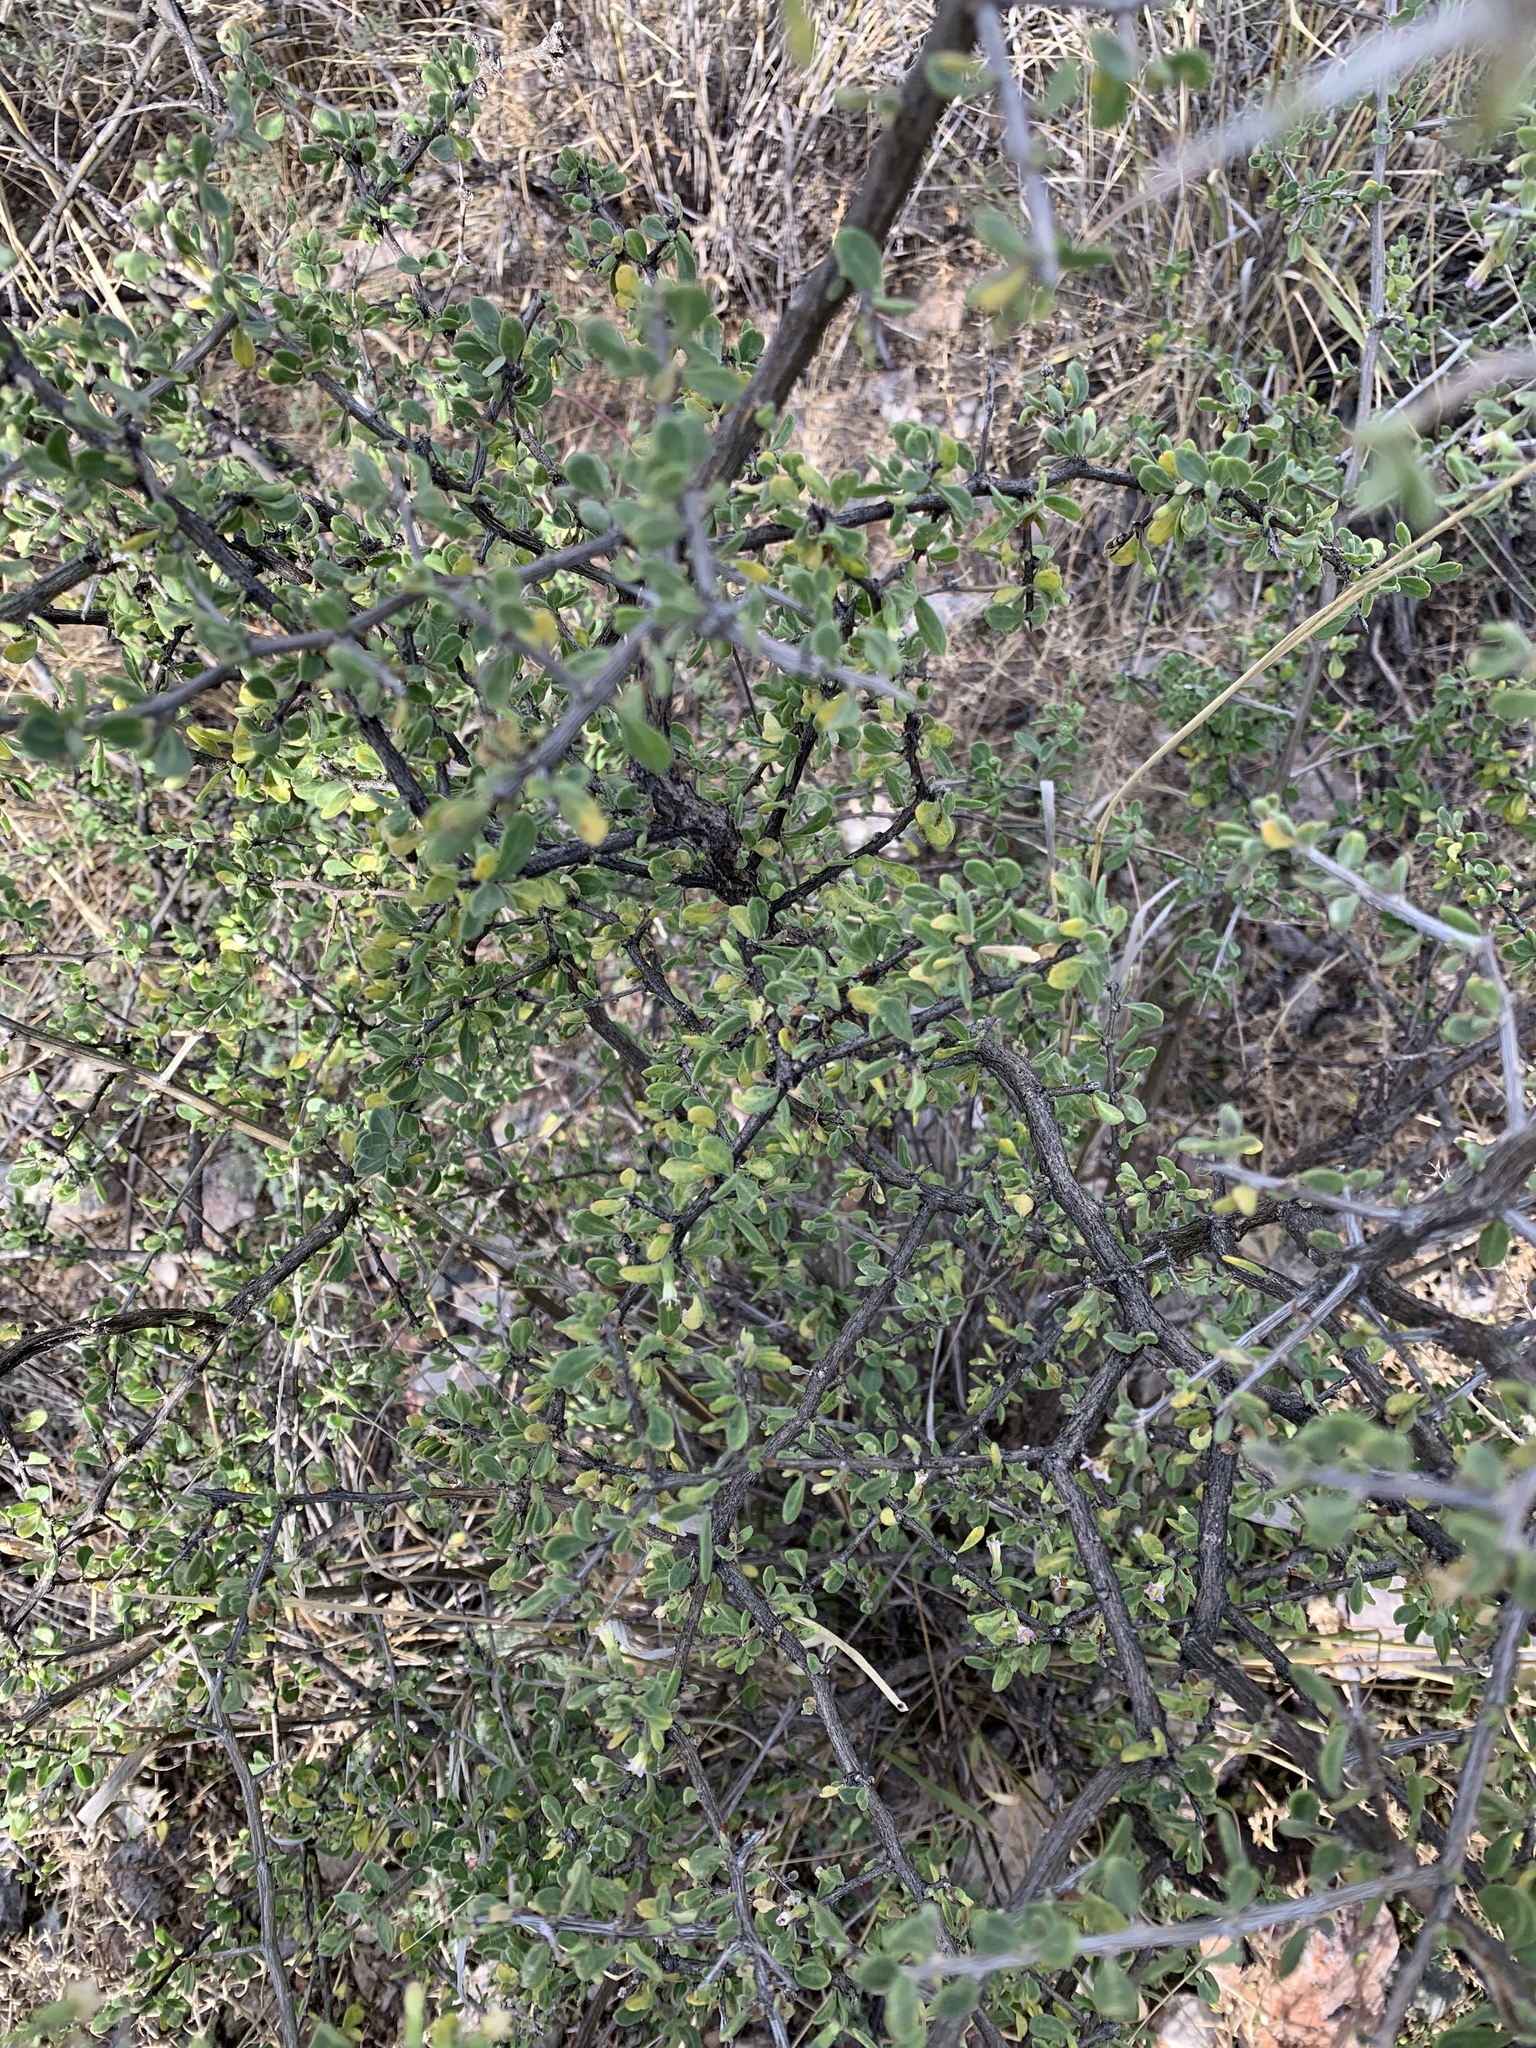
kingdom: Plantae
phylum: Tracheophyta
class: Magnoliopsida
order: Solanales
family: Solanaceae
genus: Lycium
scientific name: Lycium exsertum
